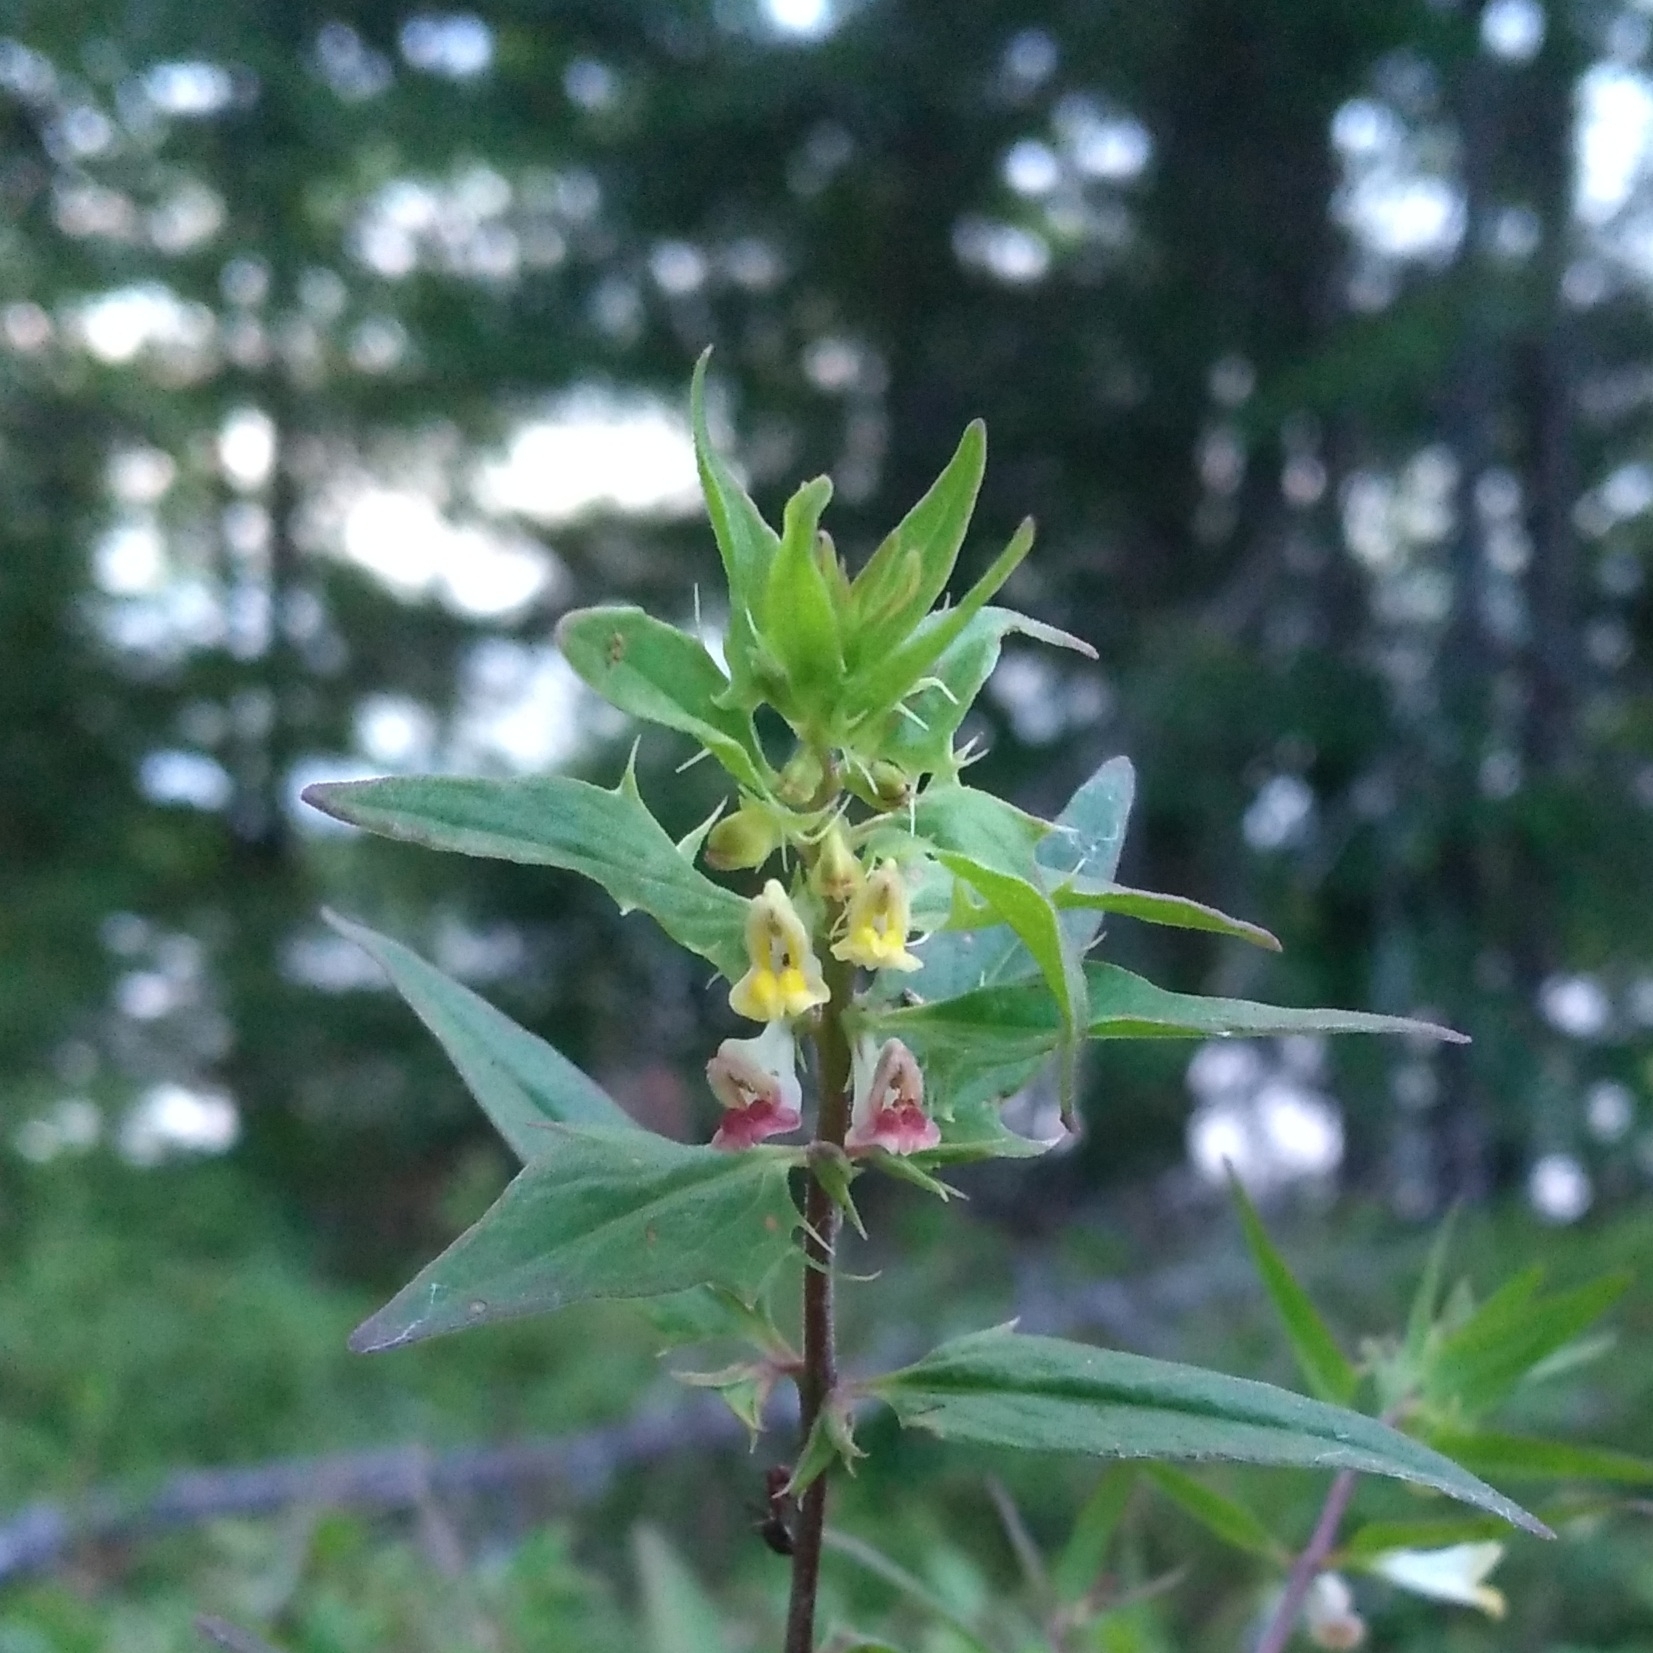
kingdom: Plantae
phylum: Tracheophyta
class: Magnoliopsida
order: Lamiales
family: Orobanchaceae
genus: Melampyrum
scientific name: Melampyrum lineare
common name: American cow-wheat
